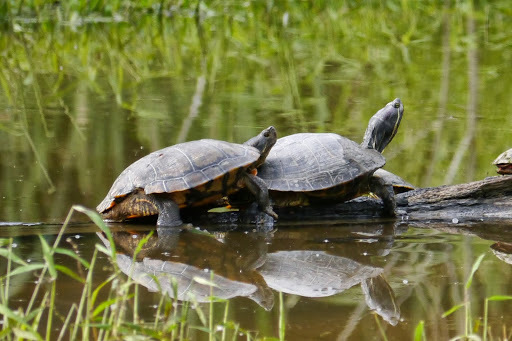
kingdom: Animalia
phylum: Chordata
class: Testudines
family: Emydidae
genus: Trachemys
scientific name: Trachemys scripta
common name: Slider
